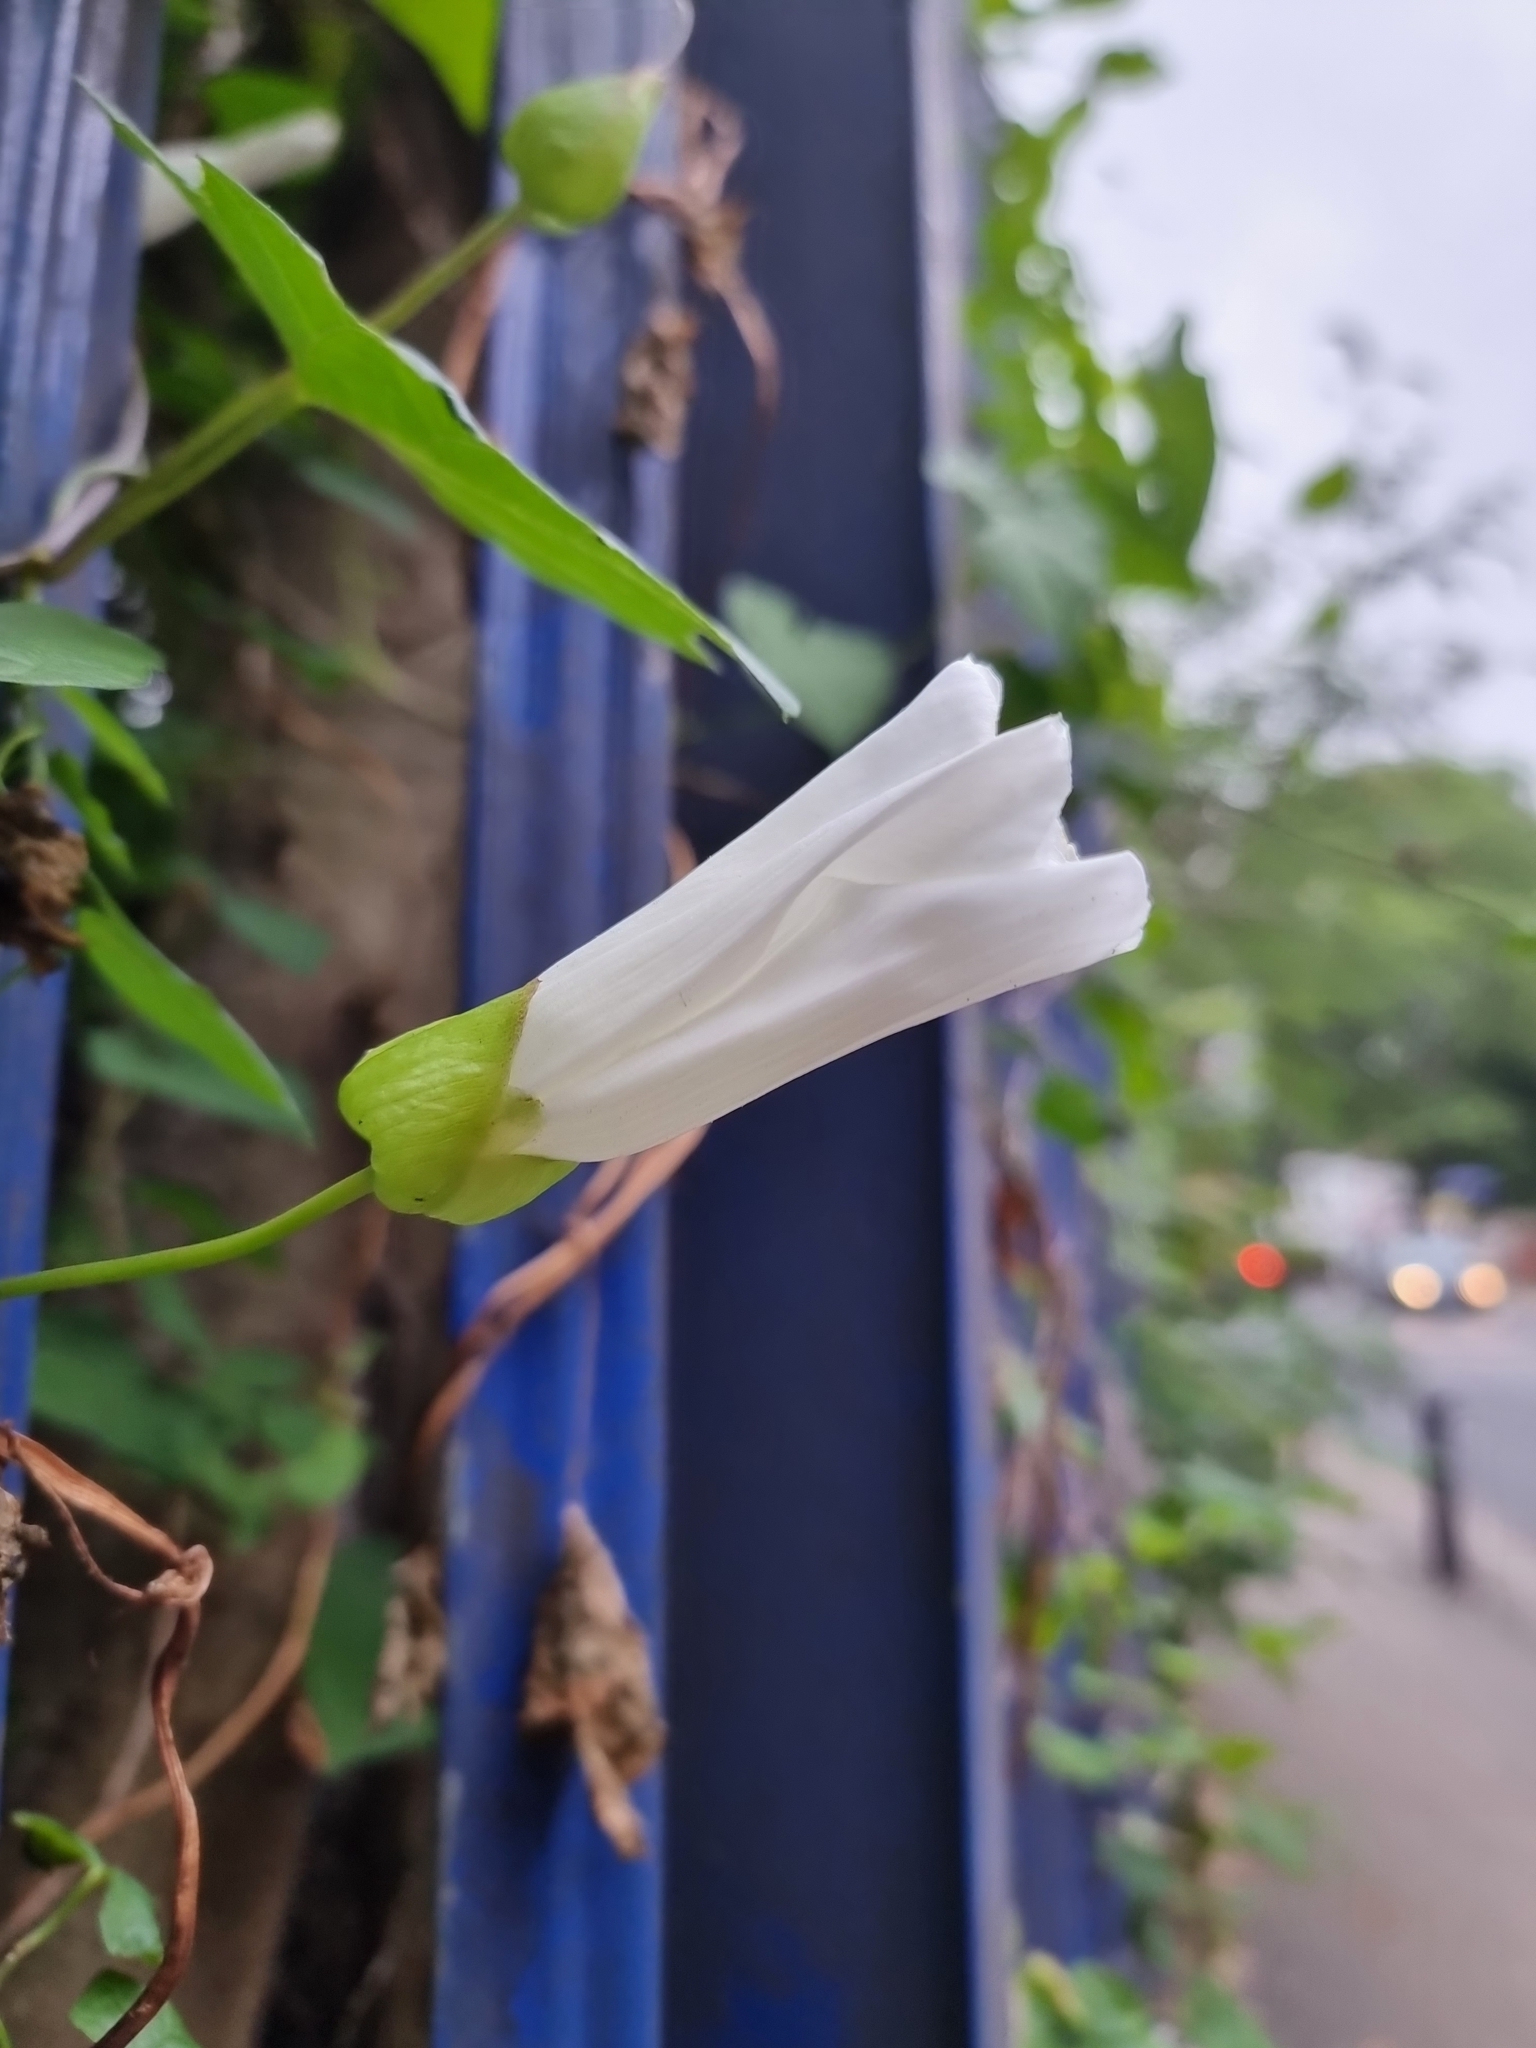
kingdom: Plantae
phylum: Tracheophyta
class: Magnoliopsida
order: Solanales
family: Convolvulaceae
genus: Calystegia
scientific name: Calystegia lucana
